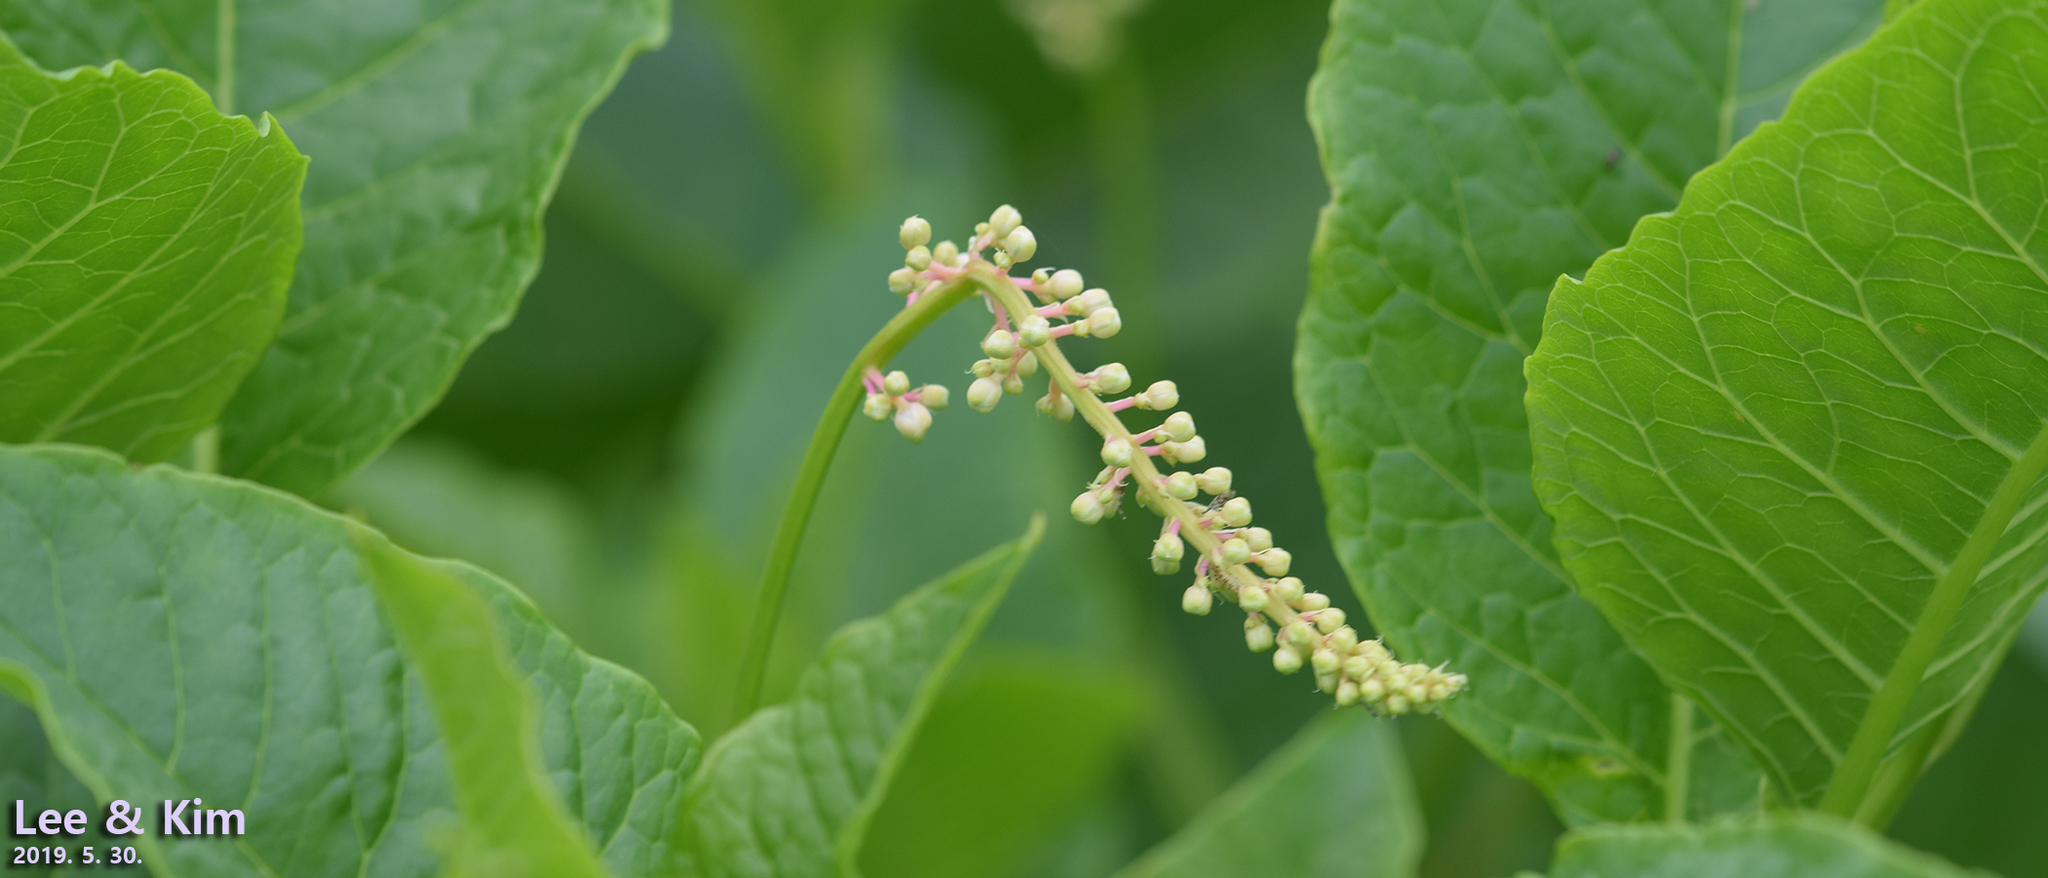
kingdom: Plantae
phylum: Tracheophyta
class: Magnoliopsida
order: Caryophyllales
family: Phytolaccaceae
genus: Phytolacca
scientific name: Phytolacca americana
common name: American pokeweed
